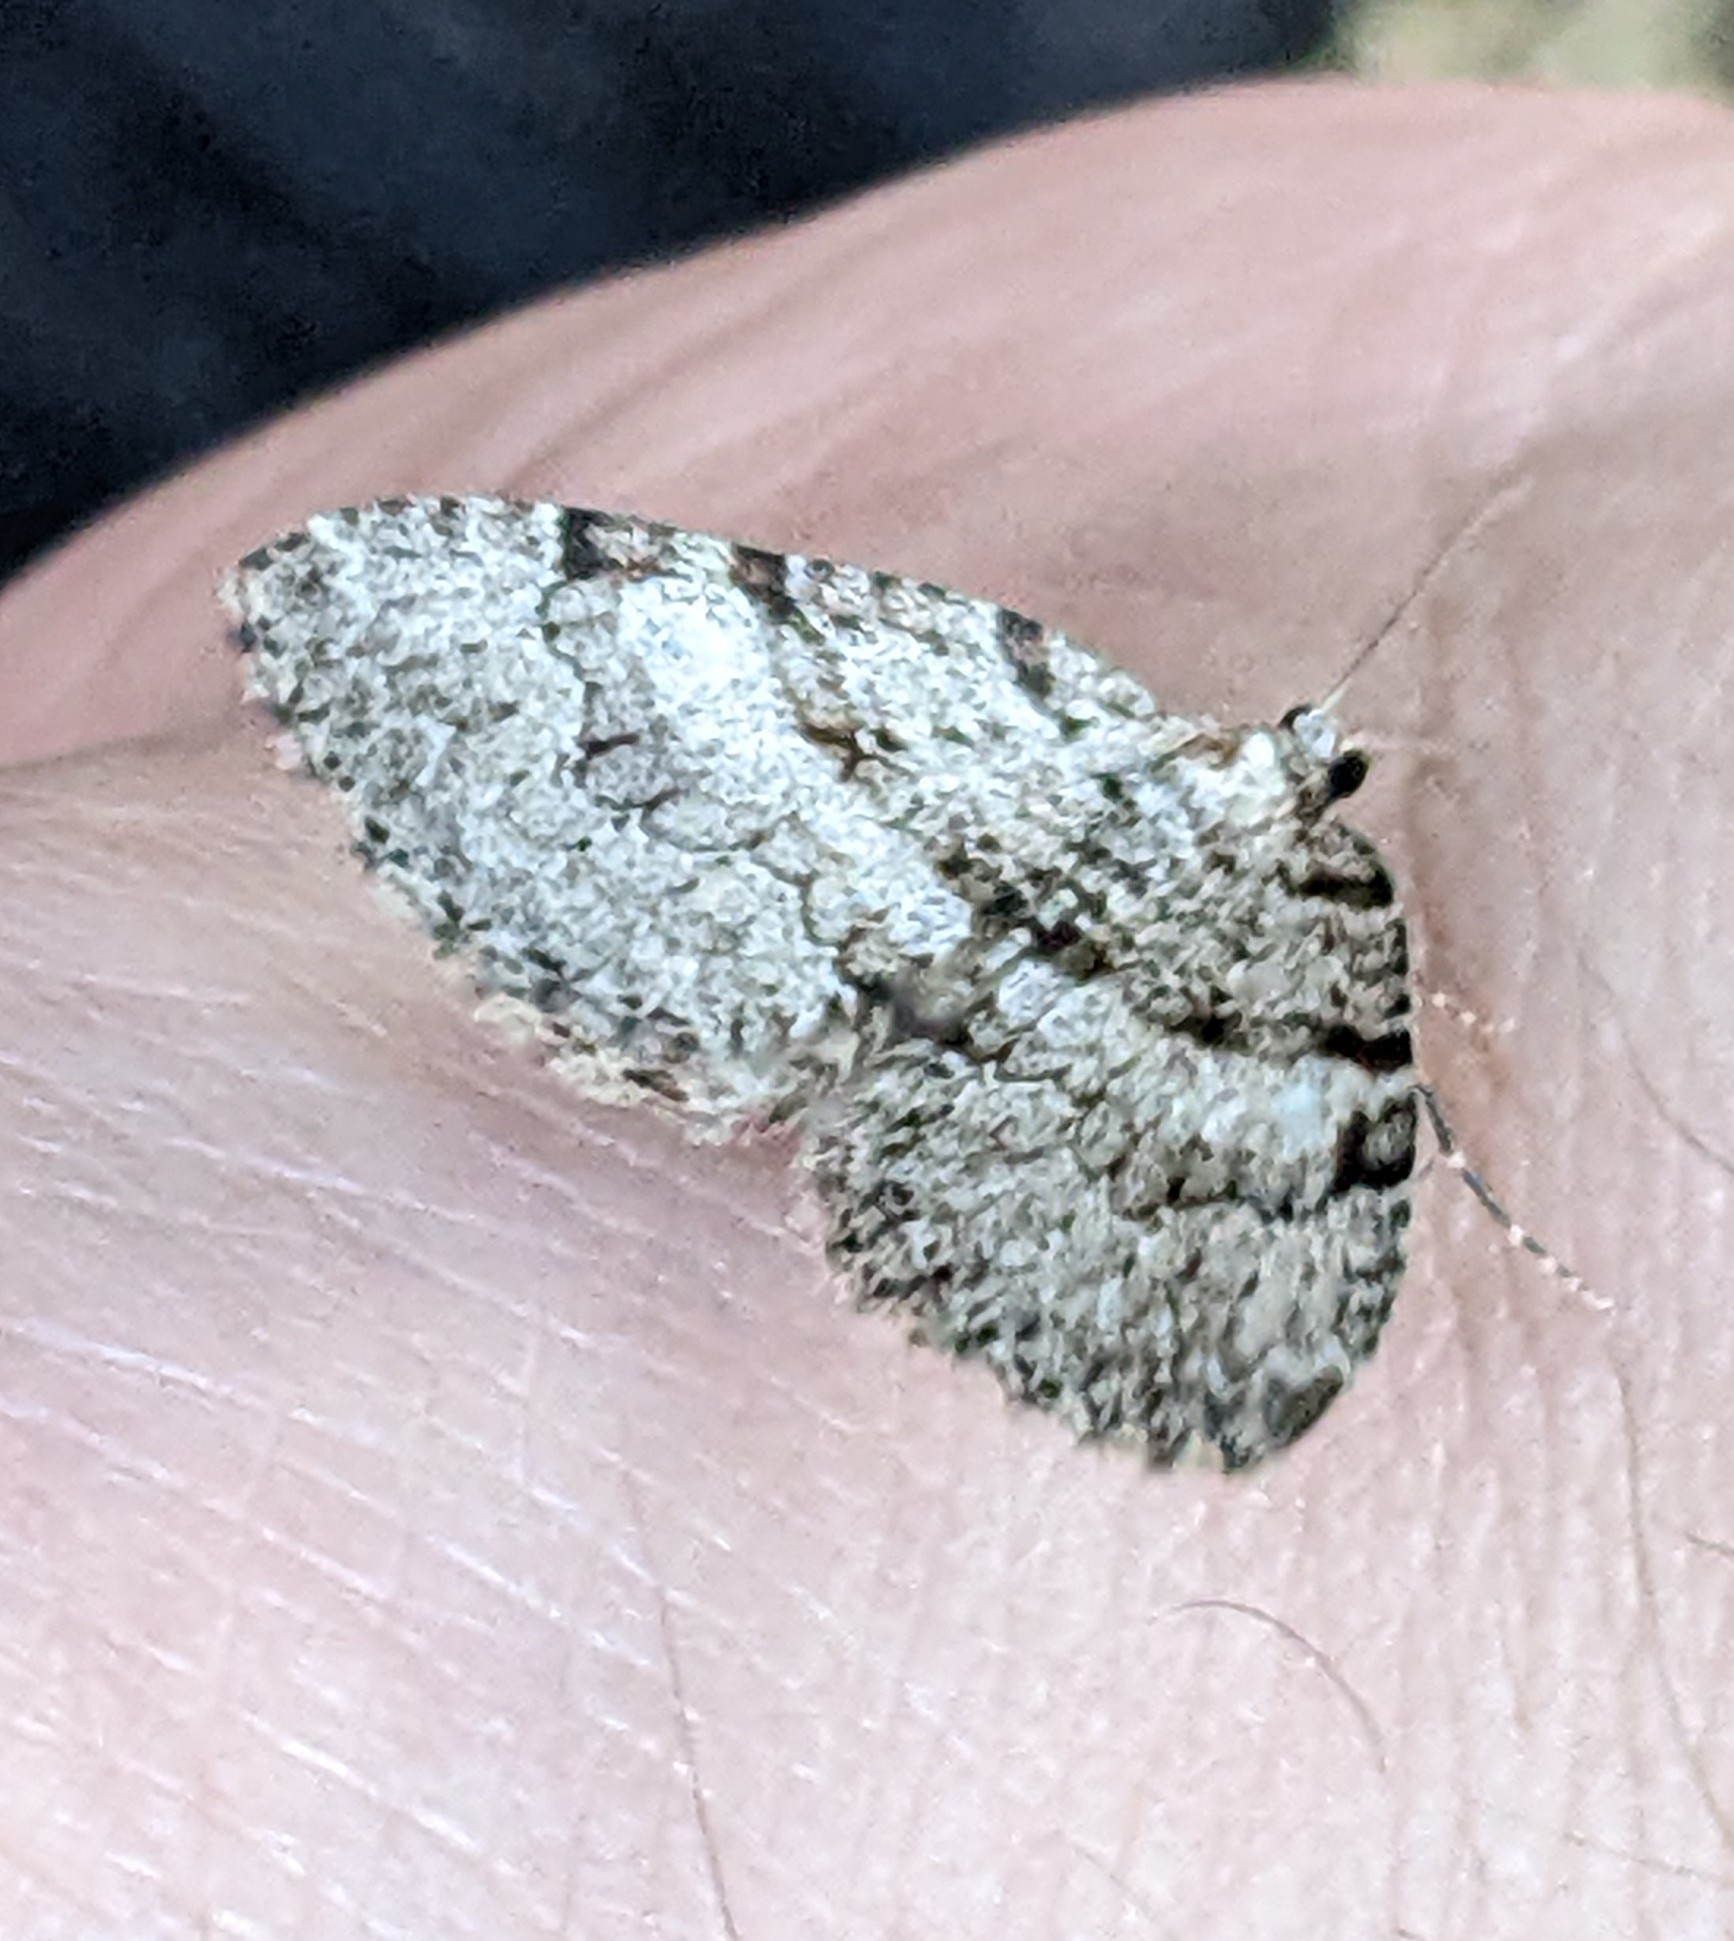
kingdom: Animalia
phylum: Arthropoda
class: Insecta
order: Lepidoptera
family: Geometridae
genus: Perizoma
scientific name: Perizoma curvilinea
